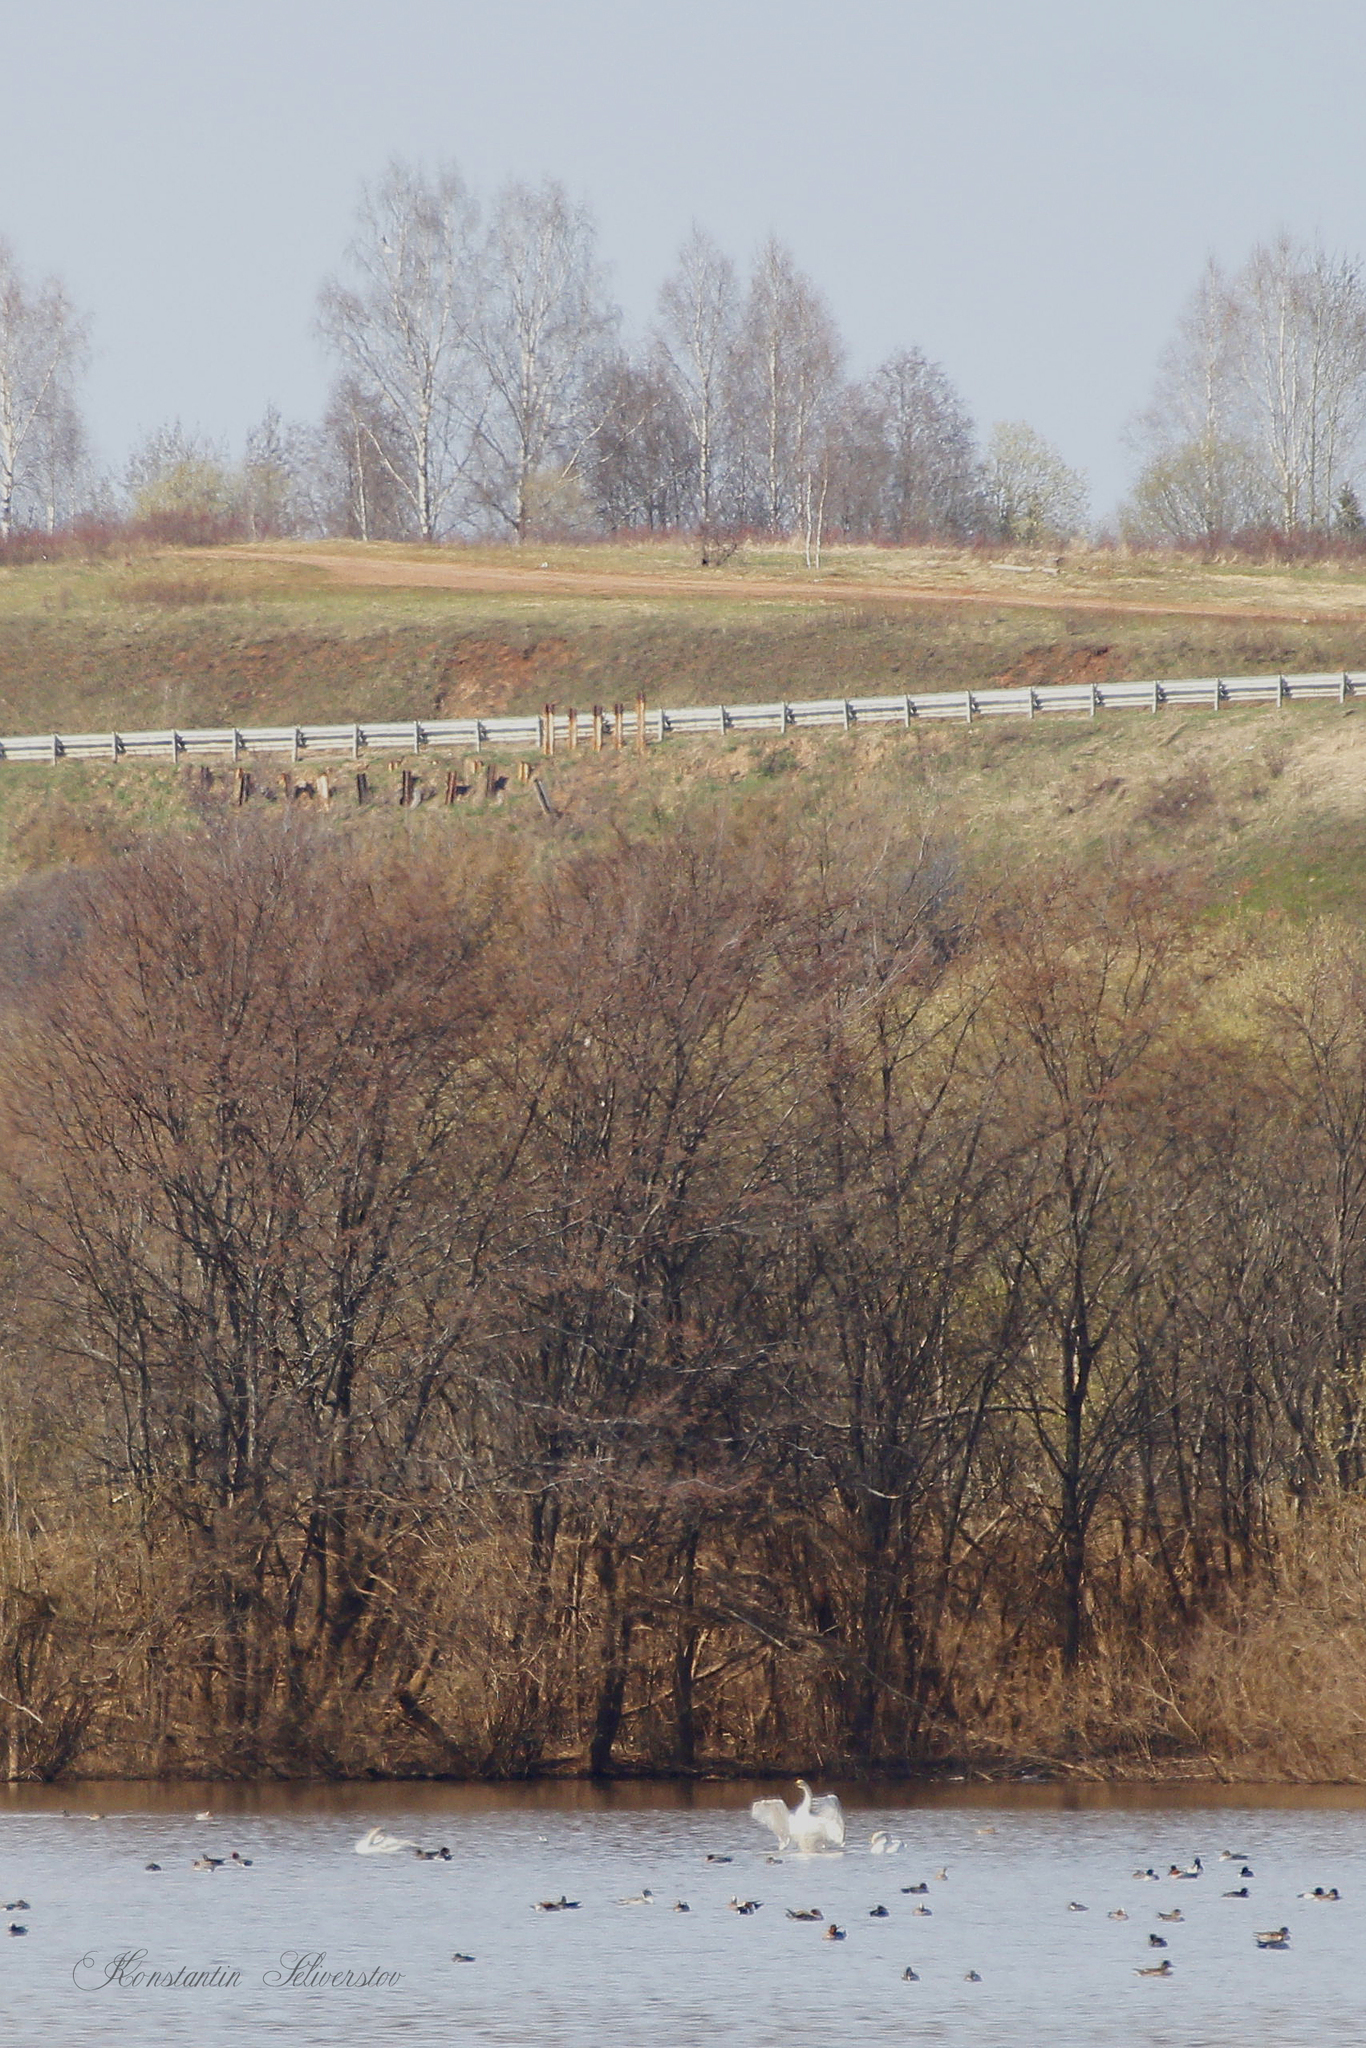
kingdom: Animalia
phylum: Chordata
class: Aves
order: Anseriformes
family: Anatidae
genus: Cygnus
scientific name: Cygnus cygnus
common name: Whooper swan
